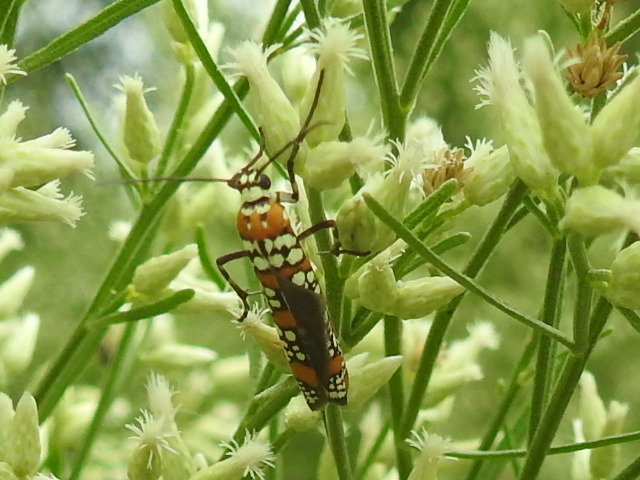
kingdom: Animalia
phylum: Arthropoda
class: Insecta
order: Lepidoptera
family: Attevidae
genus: Atteva
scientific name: Atteva punctella
